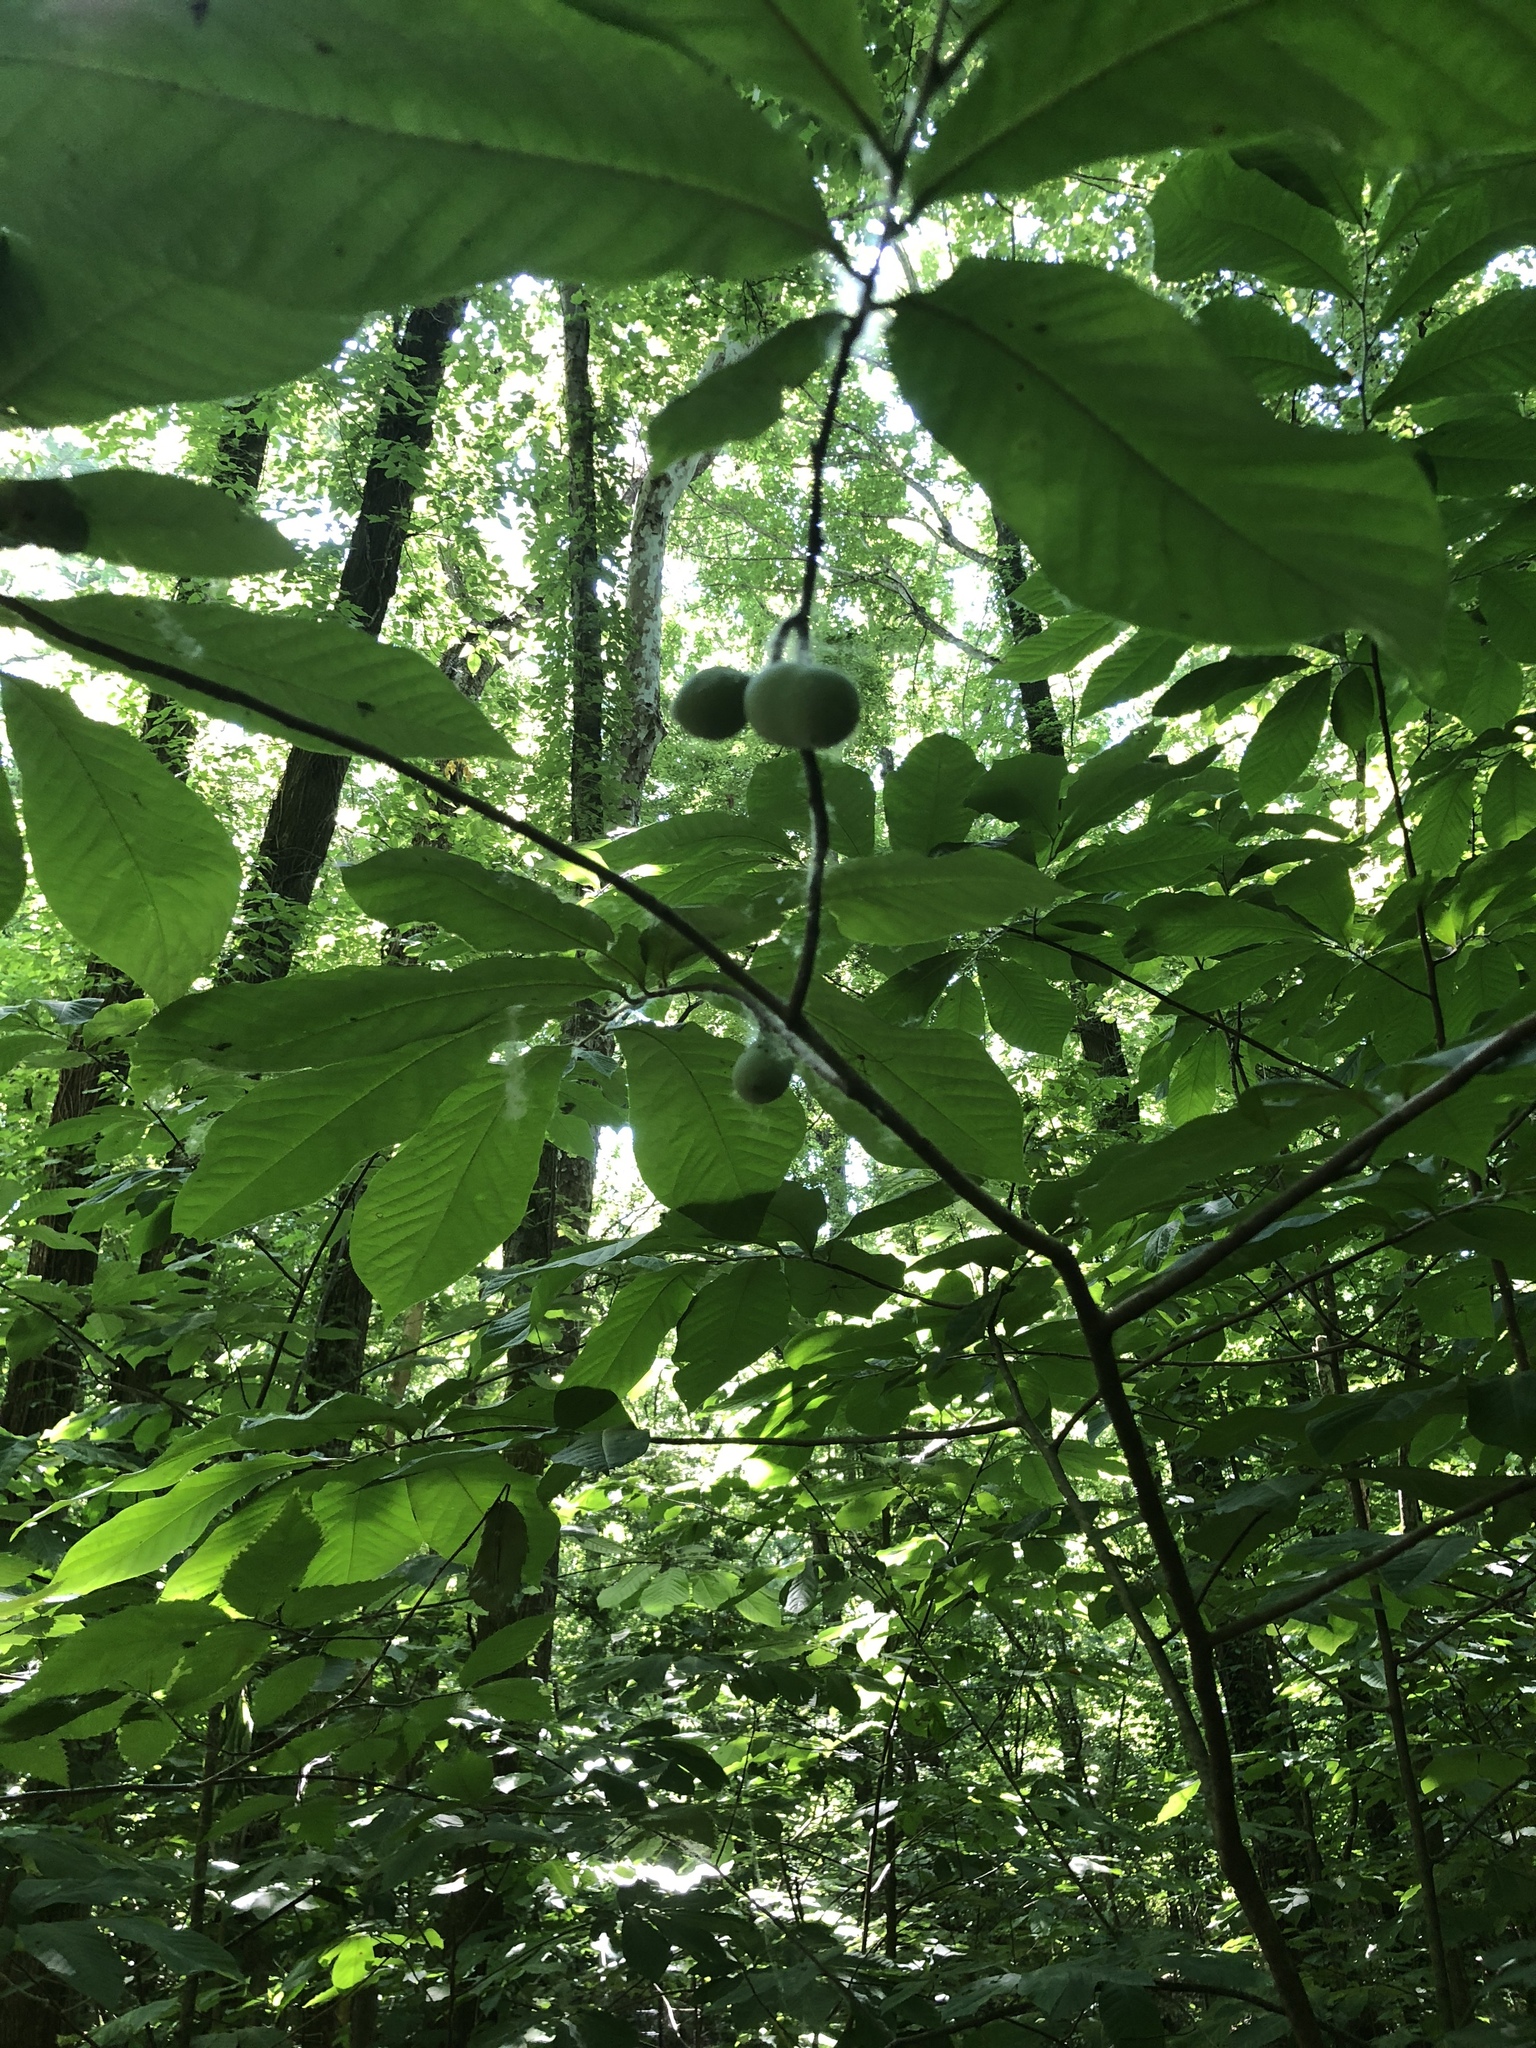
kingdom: Plantae
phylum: Tracheophyta
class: Magnoliopsida
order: Magnoliales
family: Annonaceae
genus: Asimina
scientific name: Asimina triloba
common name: Dog-banana
